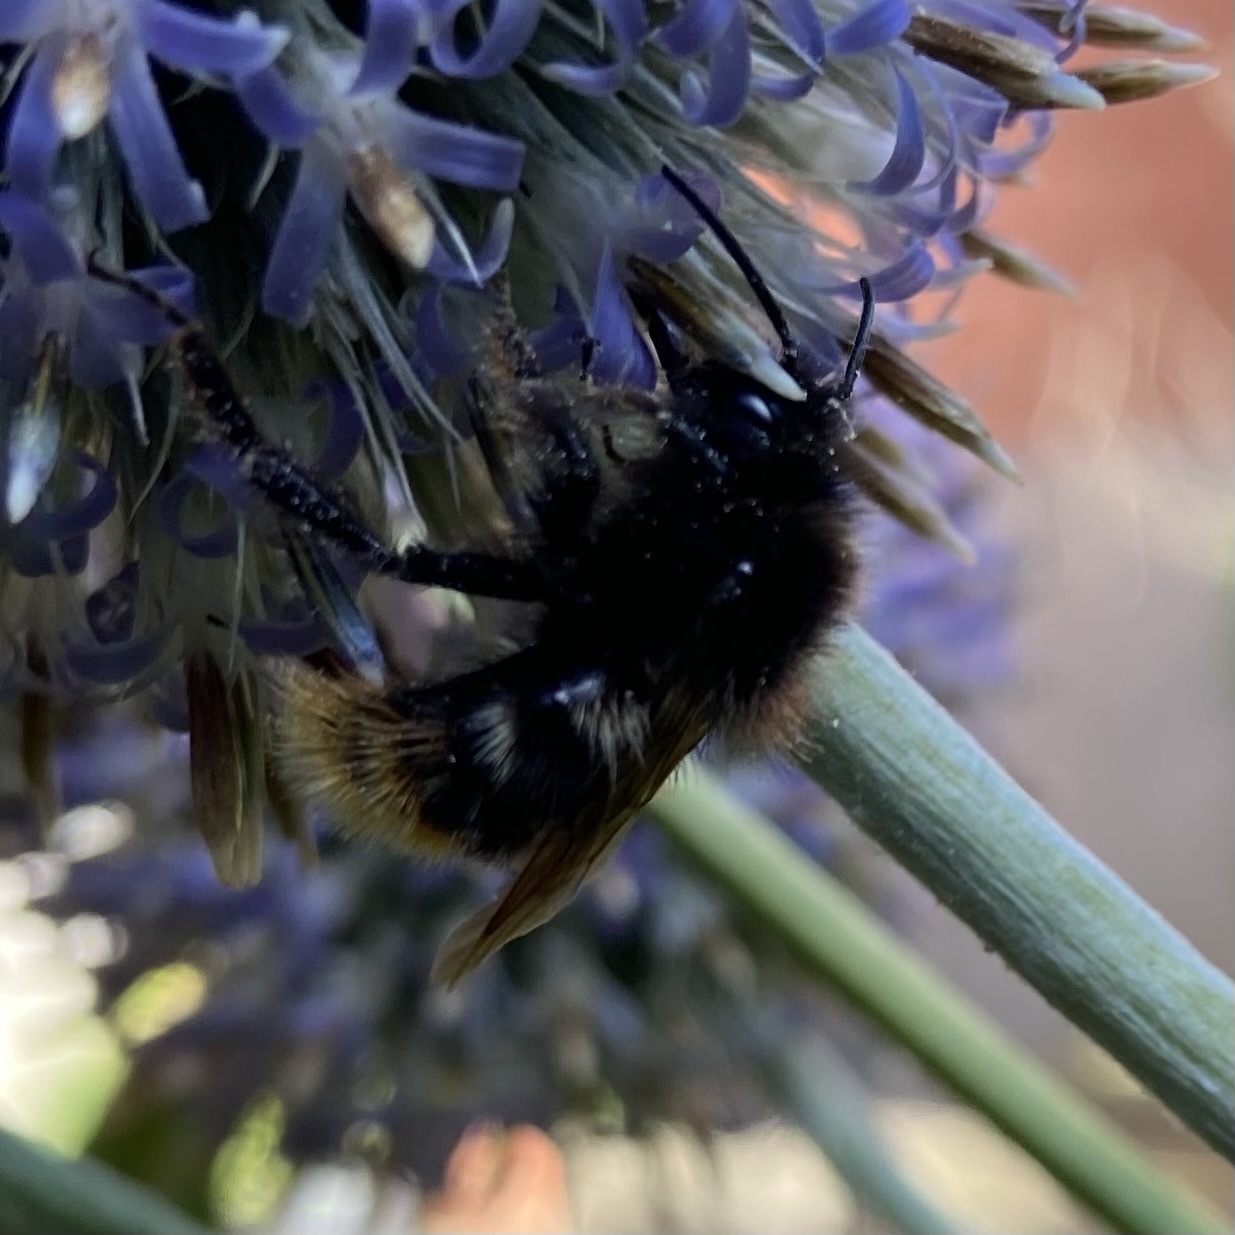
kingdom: Animalia
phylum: Arthropoda
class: Insecta
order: Hymenoptera
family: Apidae
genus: Bombus
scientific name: Bombus rupestris
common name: Hill cuckoo-bee
